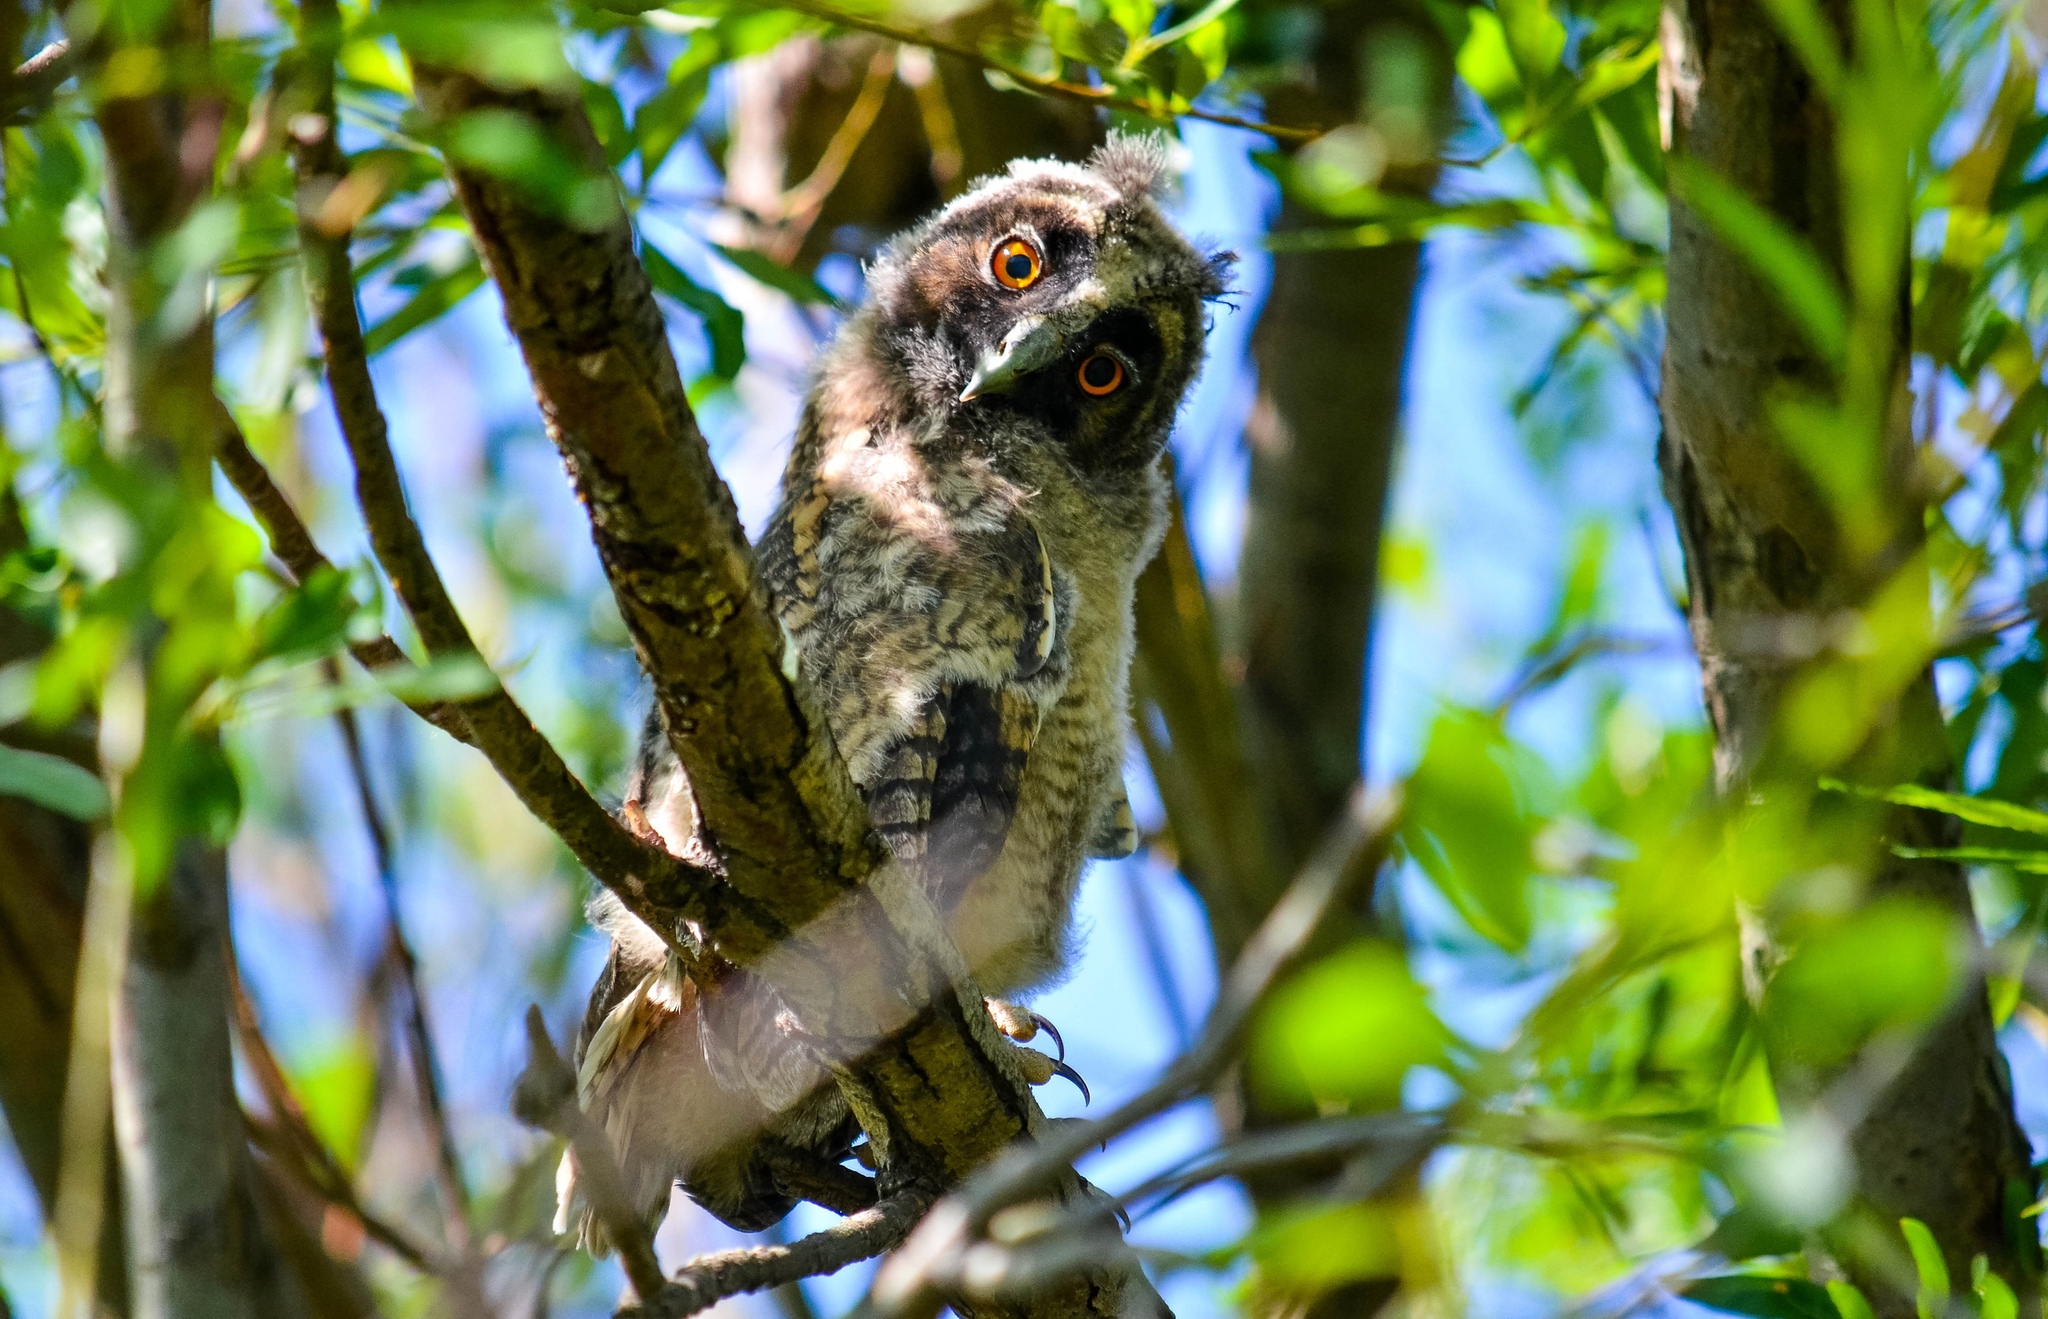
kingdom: Animalia
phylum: Chordata
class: Aves
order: Strigiformes
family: Strigidae
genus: Asio
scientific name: Asio otus
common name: Long-eared owl
